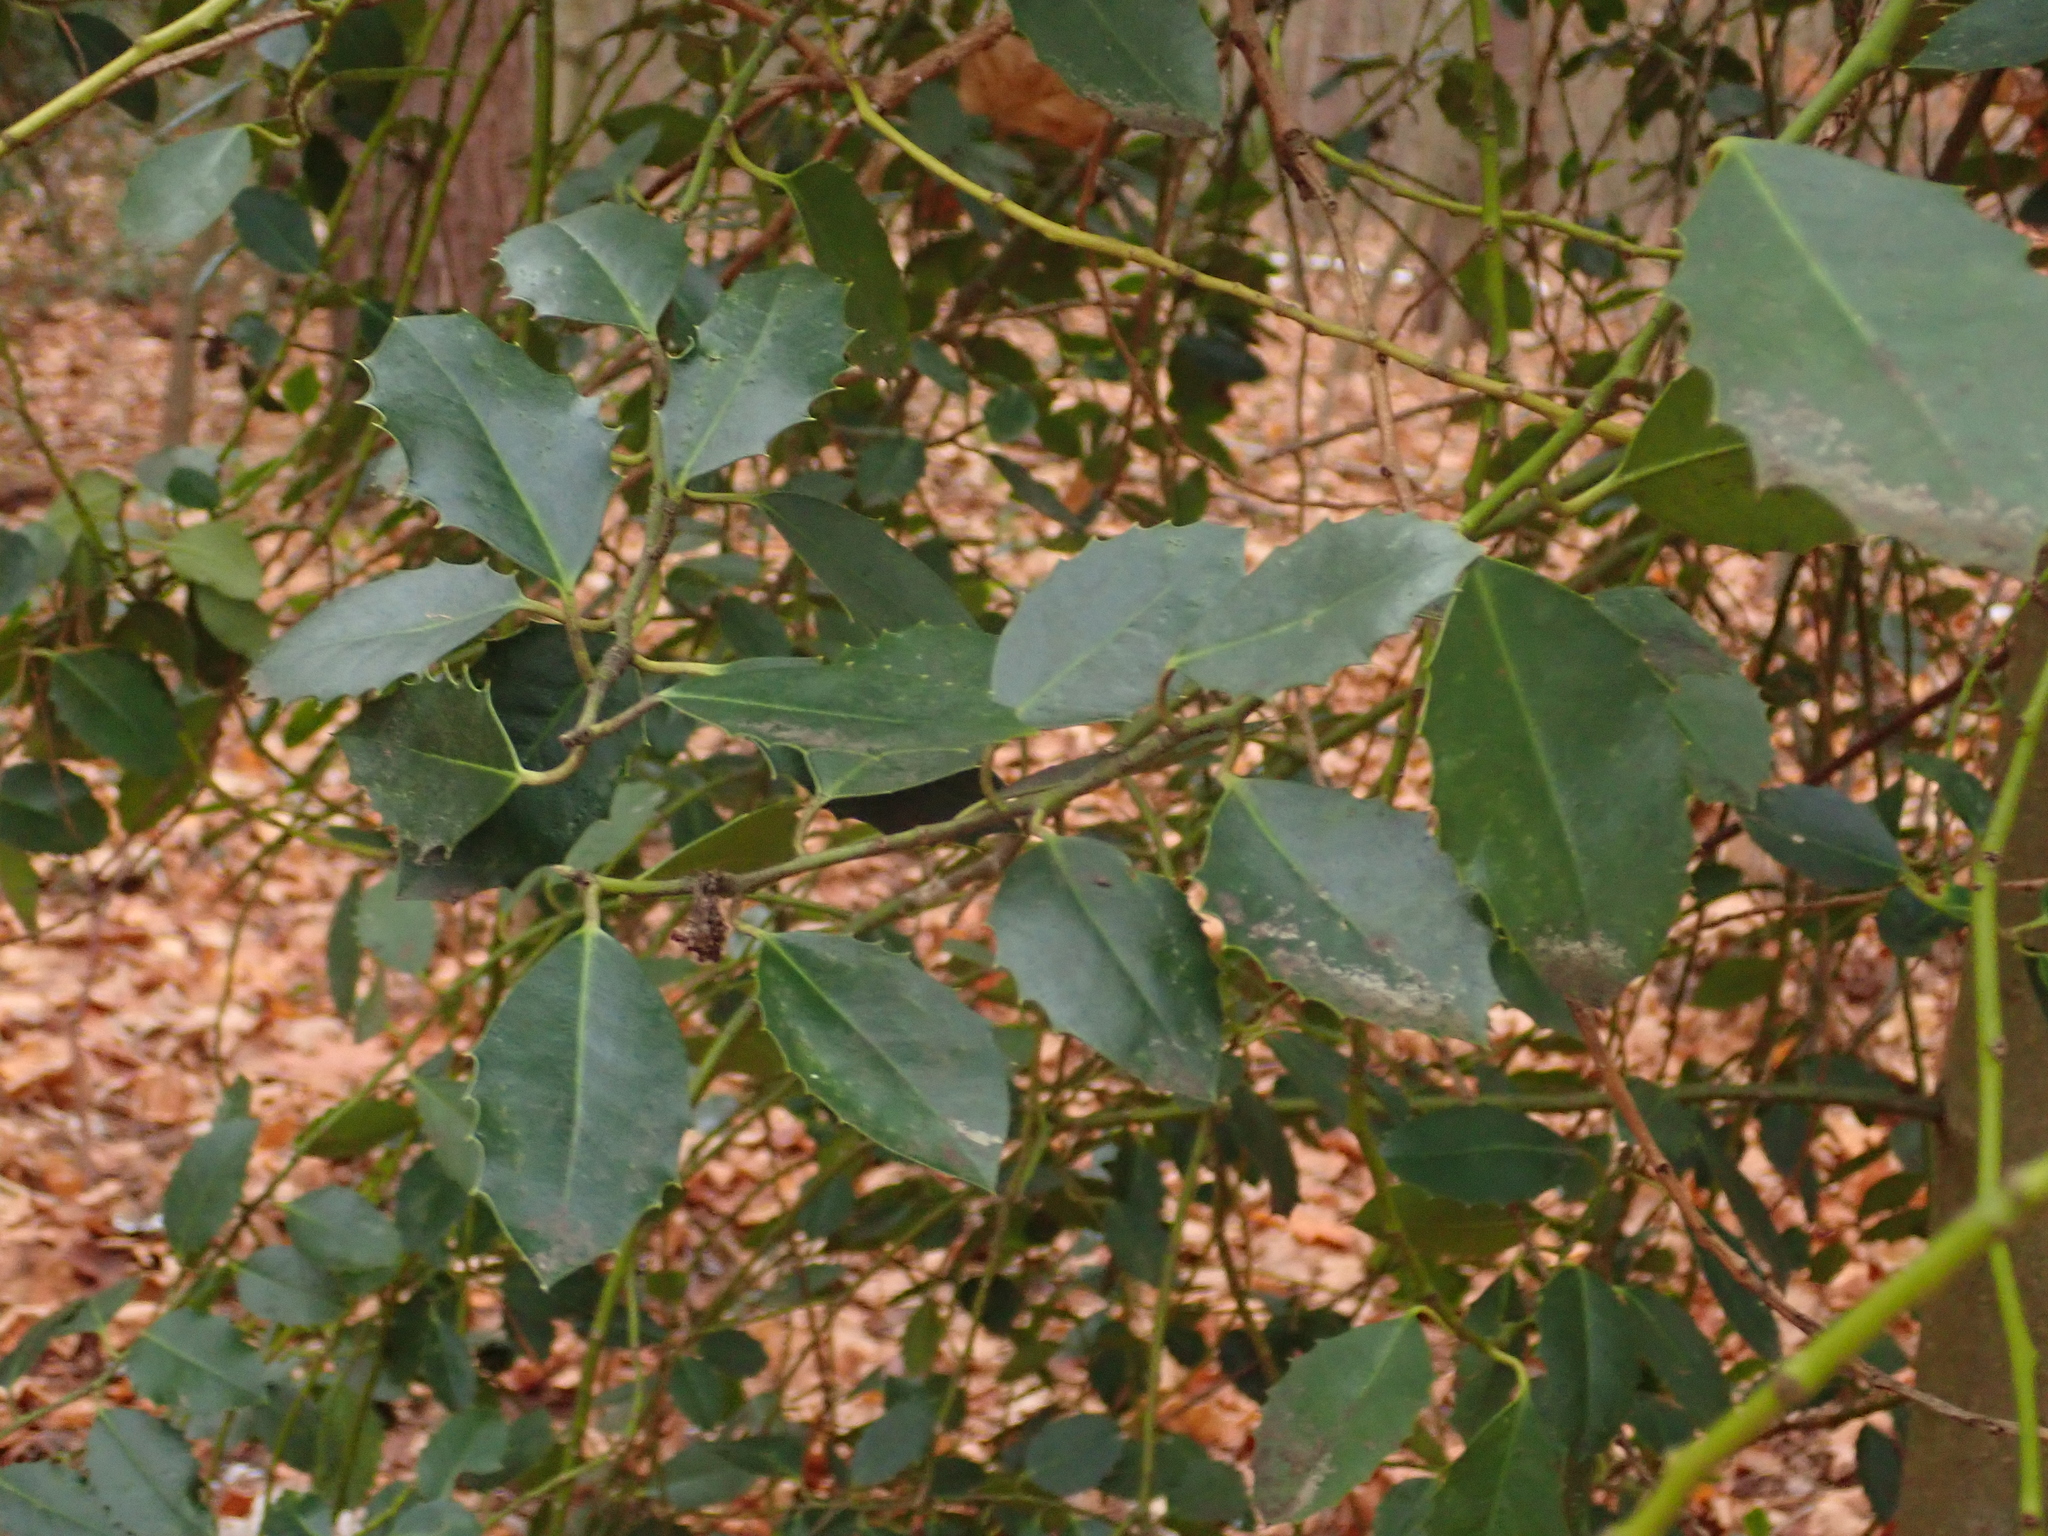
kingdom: Plantae
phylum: Tracheophyta
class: Magnoliopsida
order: Aquifoliales
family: Aquifoliaceae
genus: Ilex
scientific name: Ilex aquifolium
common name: English holly
